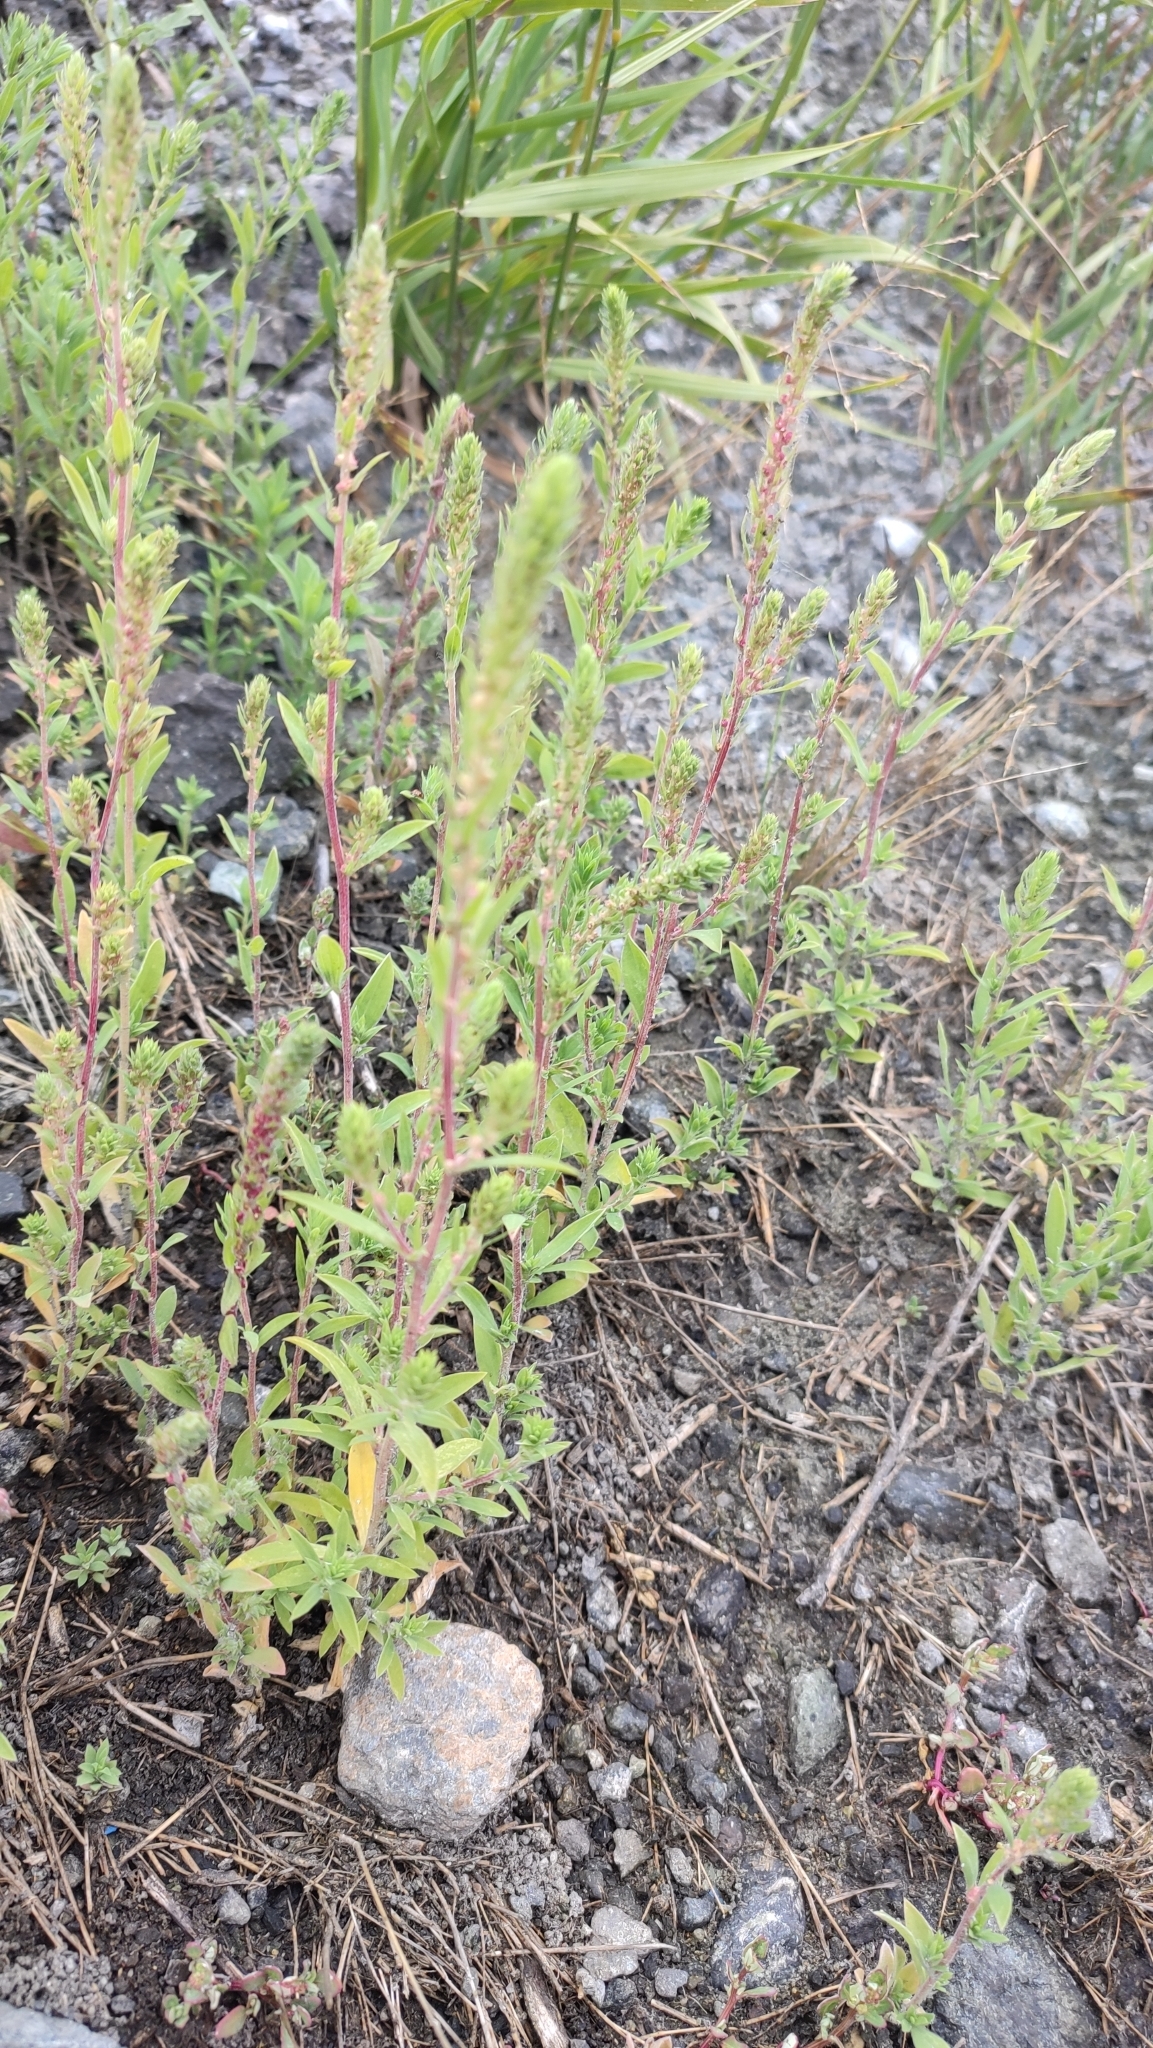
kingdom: Plantae
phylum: Tracheophyta
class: Magnoliopsida
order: Caryophyllales
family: Amaranthaceae
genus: Bassia
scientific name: Bassia scoparia
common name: Belvedere
